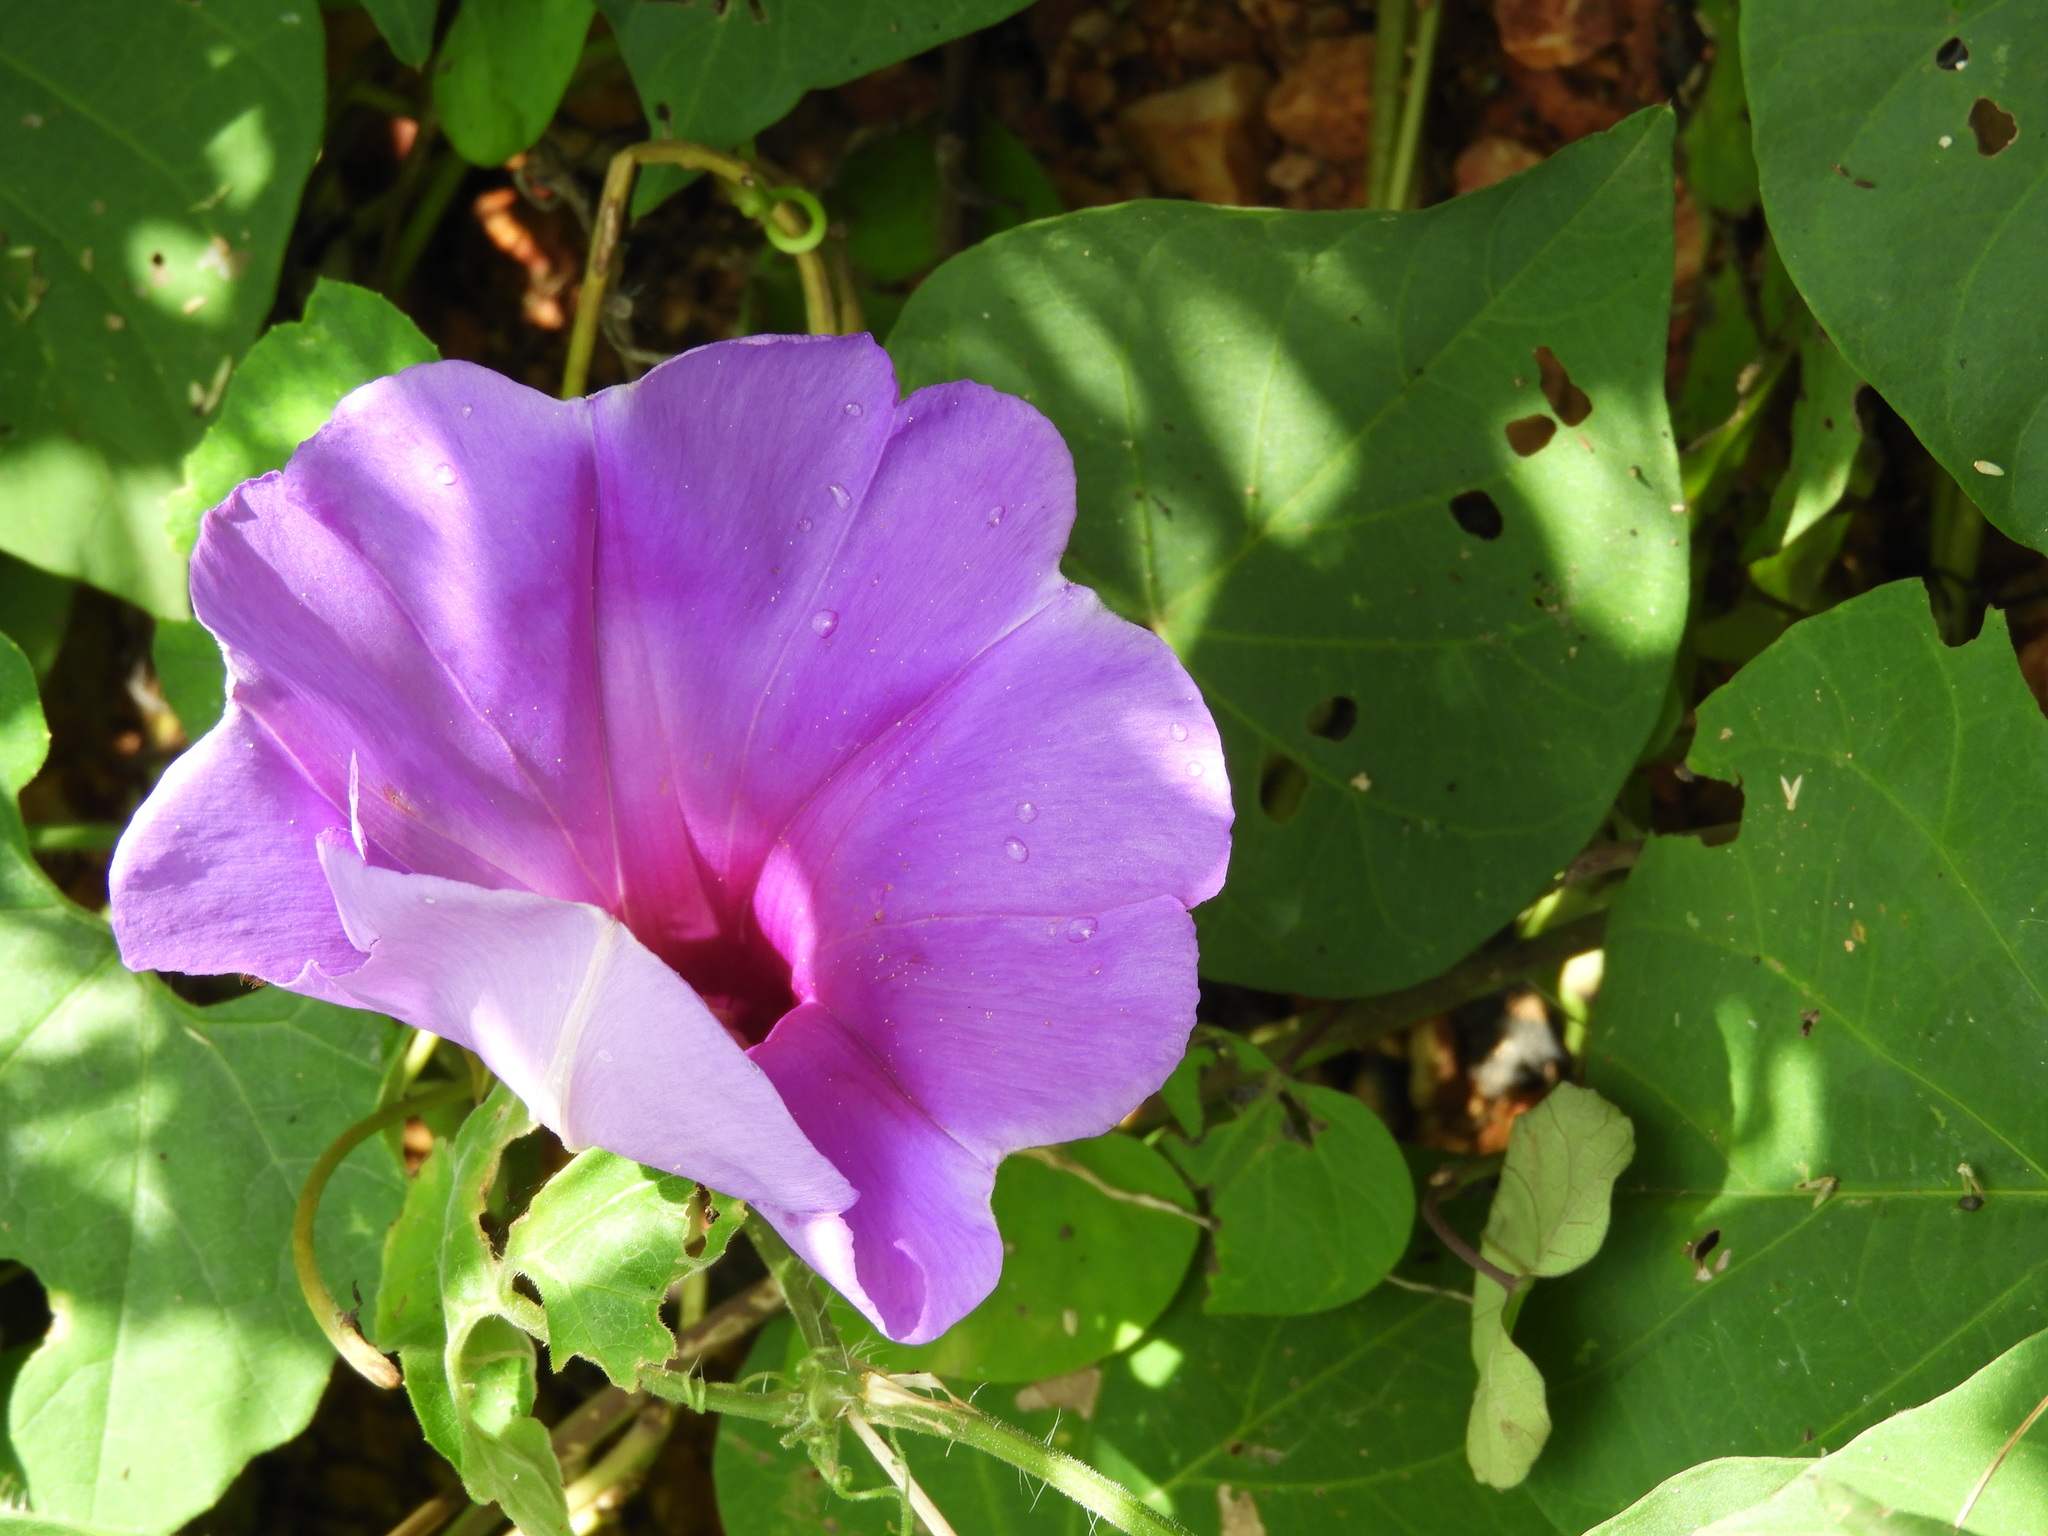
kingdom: Plantae
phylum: Tracheophyta
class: Magnoliopsida
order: Solanales
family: Convolvulaceae
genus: Ipomoea
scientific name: Ipomoea pedicellaris
